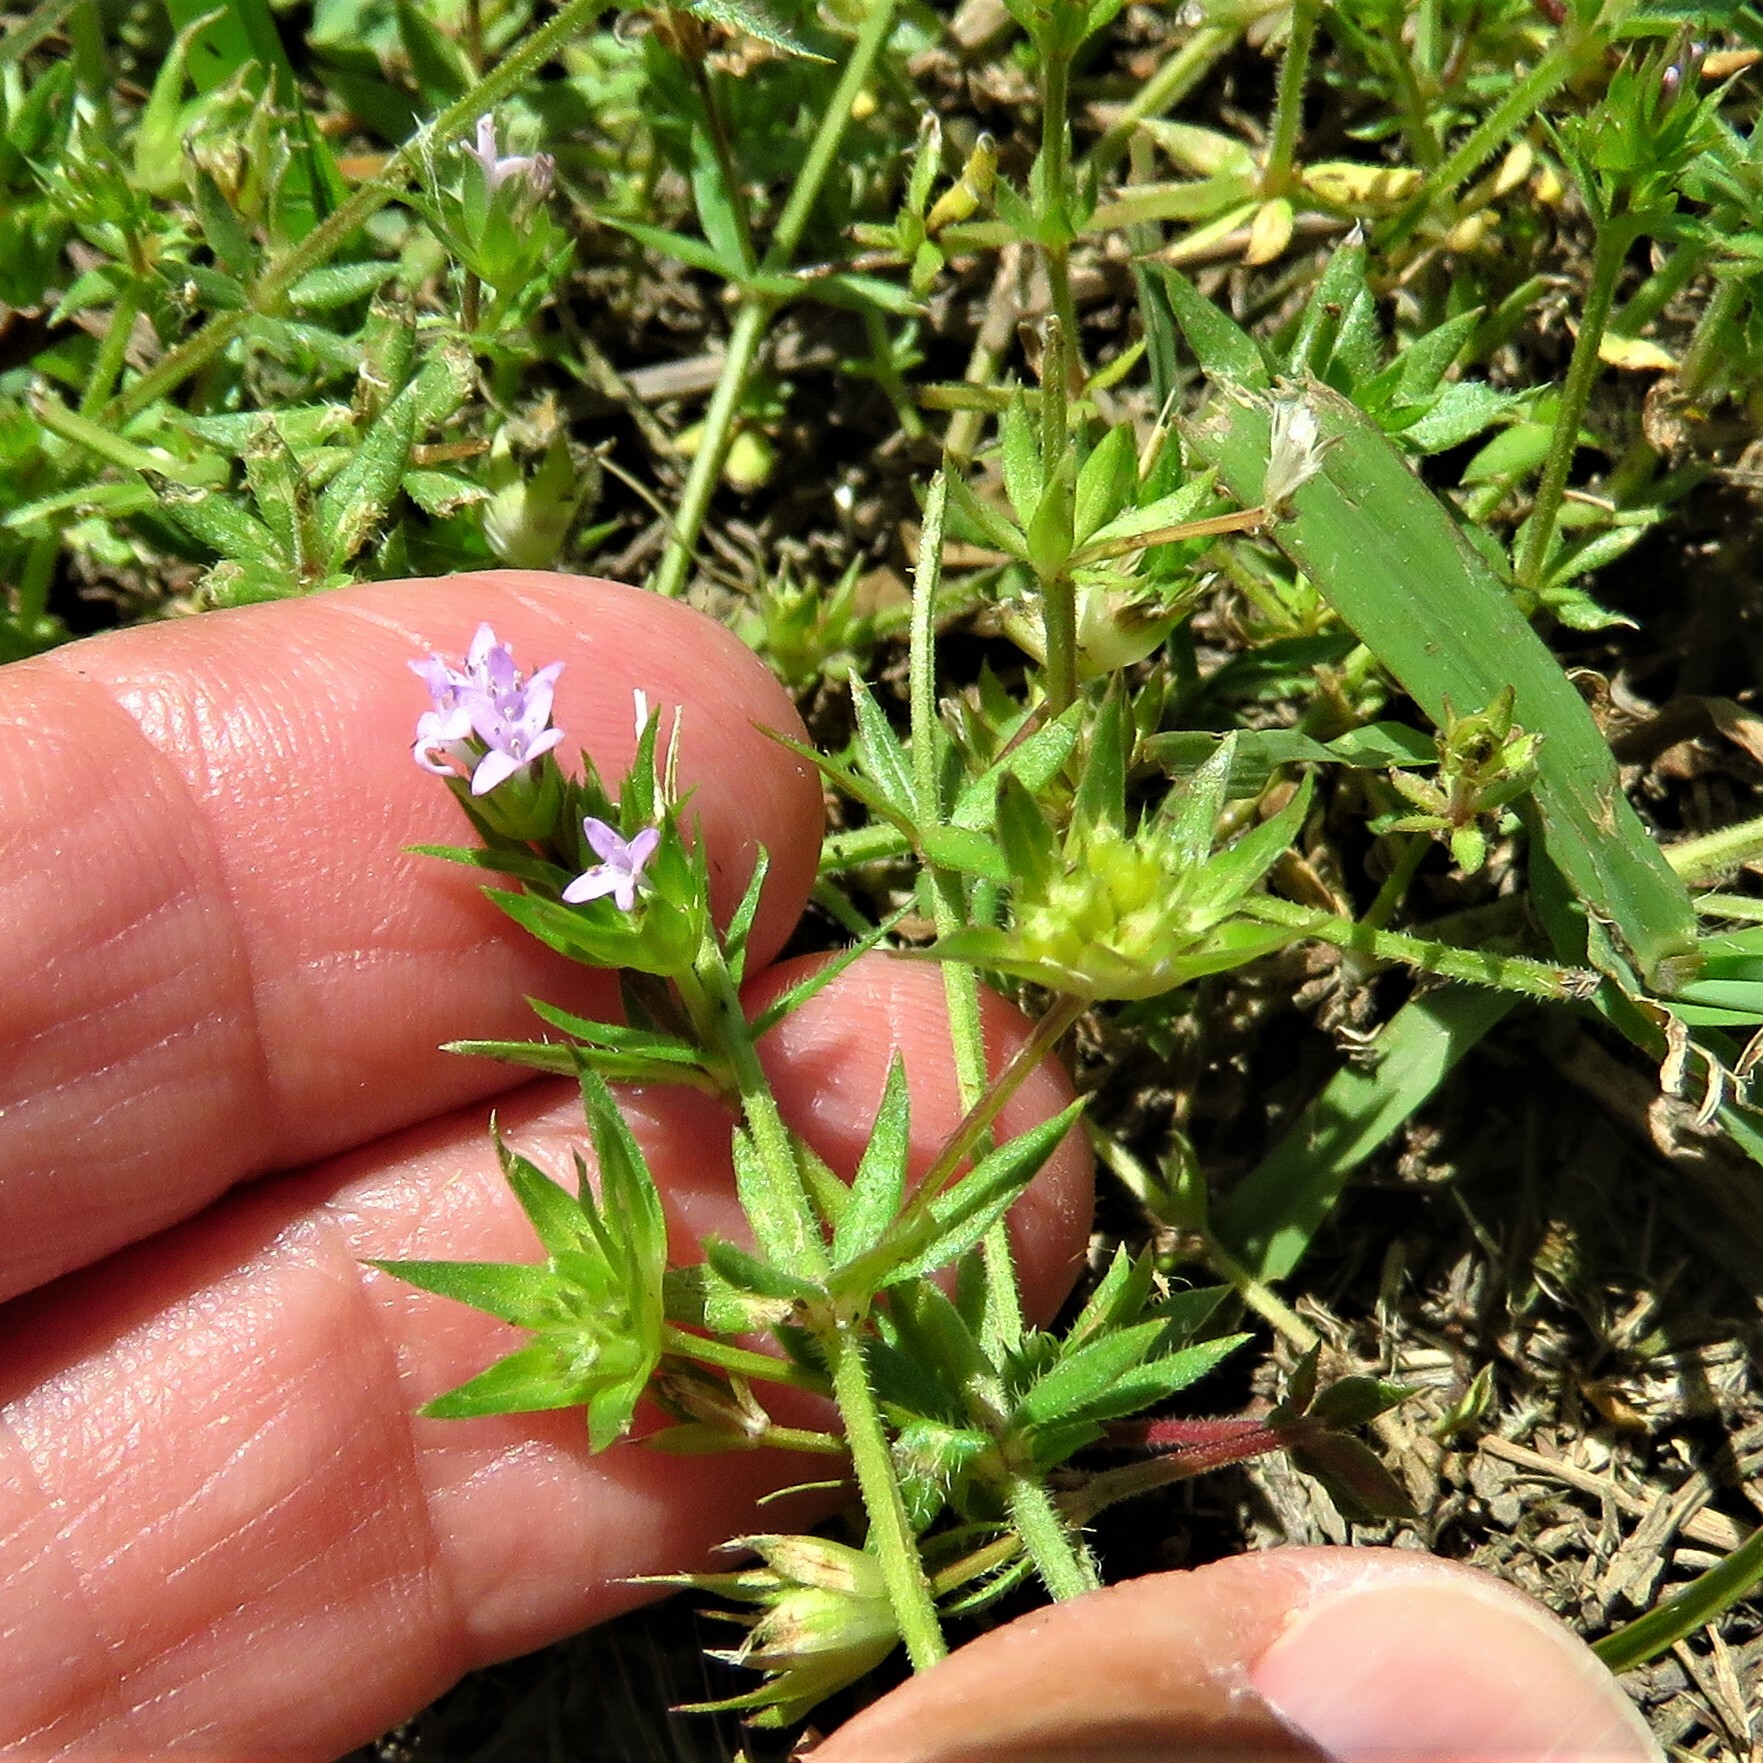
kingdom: Plantae
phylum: Tracheophyta
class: Magnoliopsida
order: Gentianales
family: Rubiaceae
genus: Sherardia
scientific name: Sherardia arvensis
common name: Field madder
